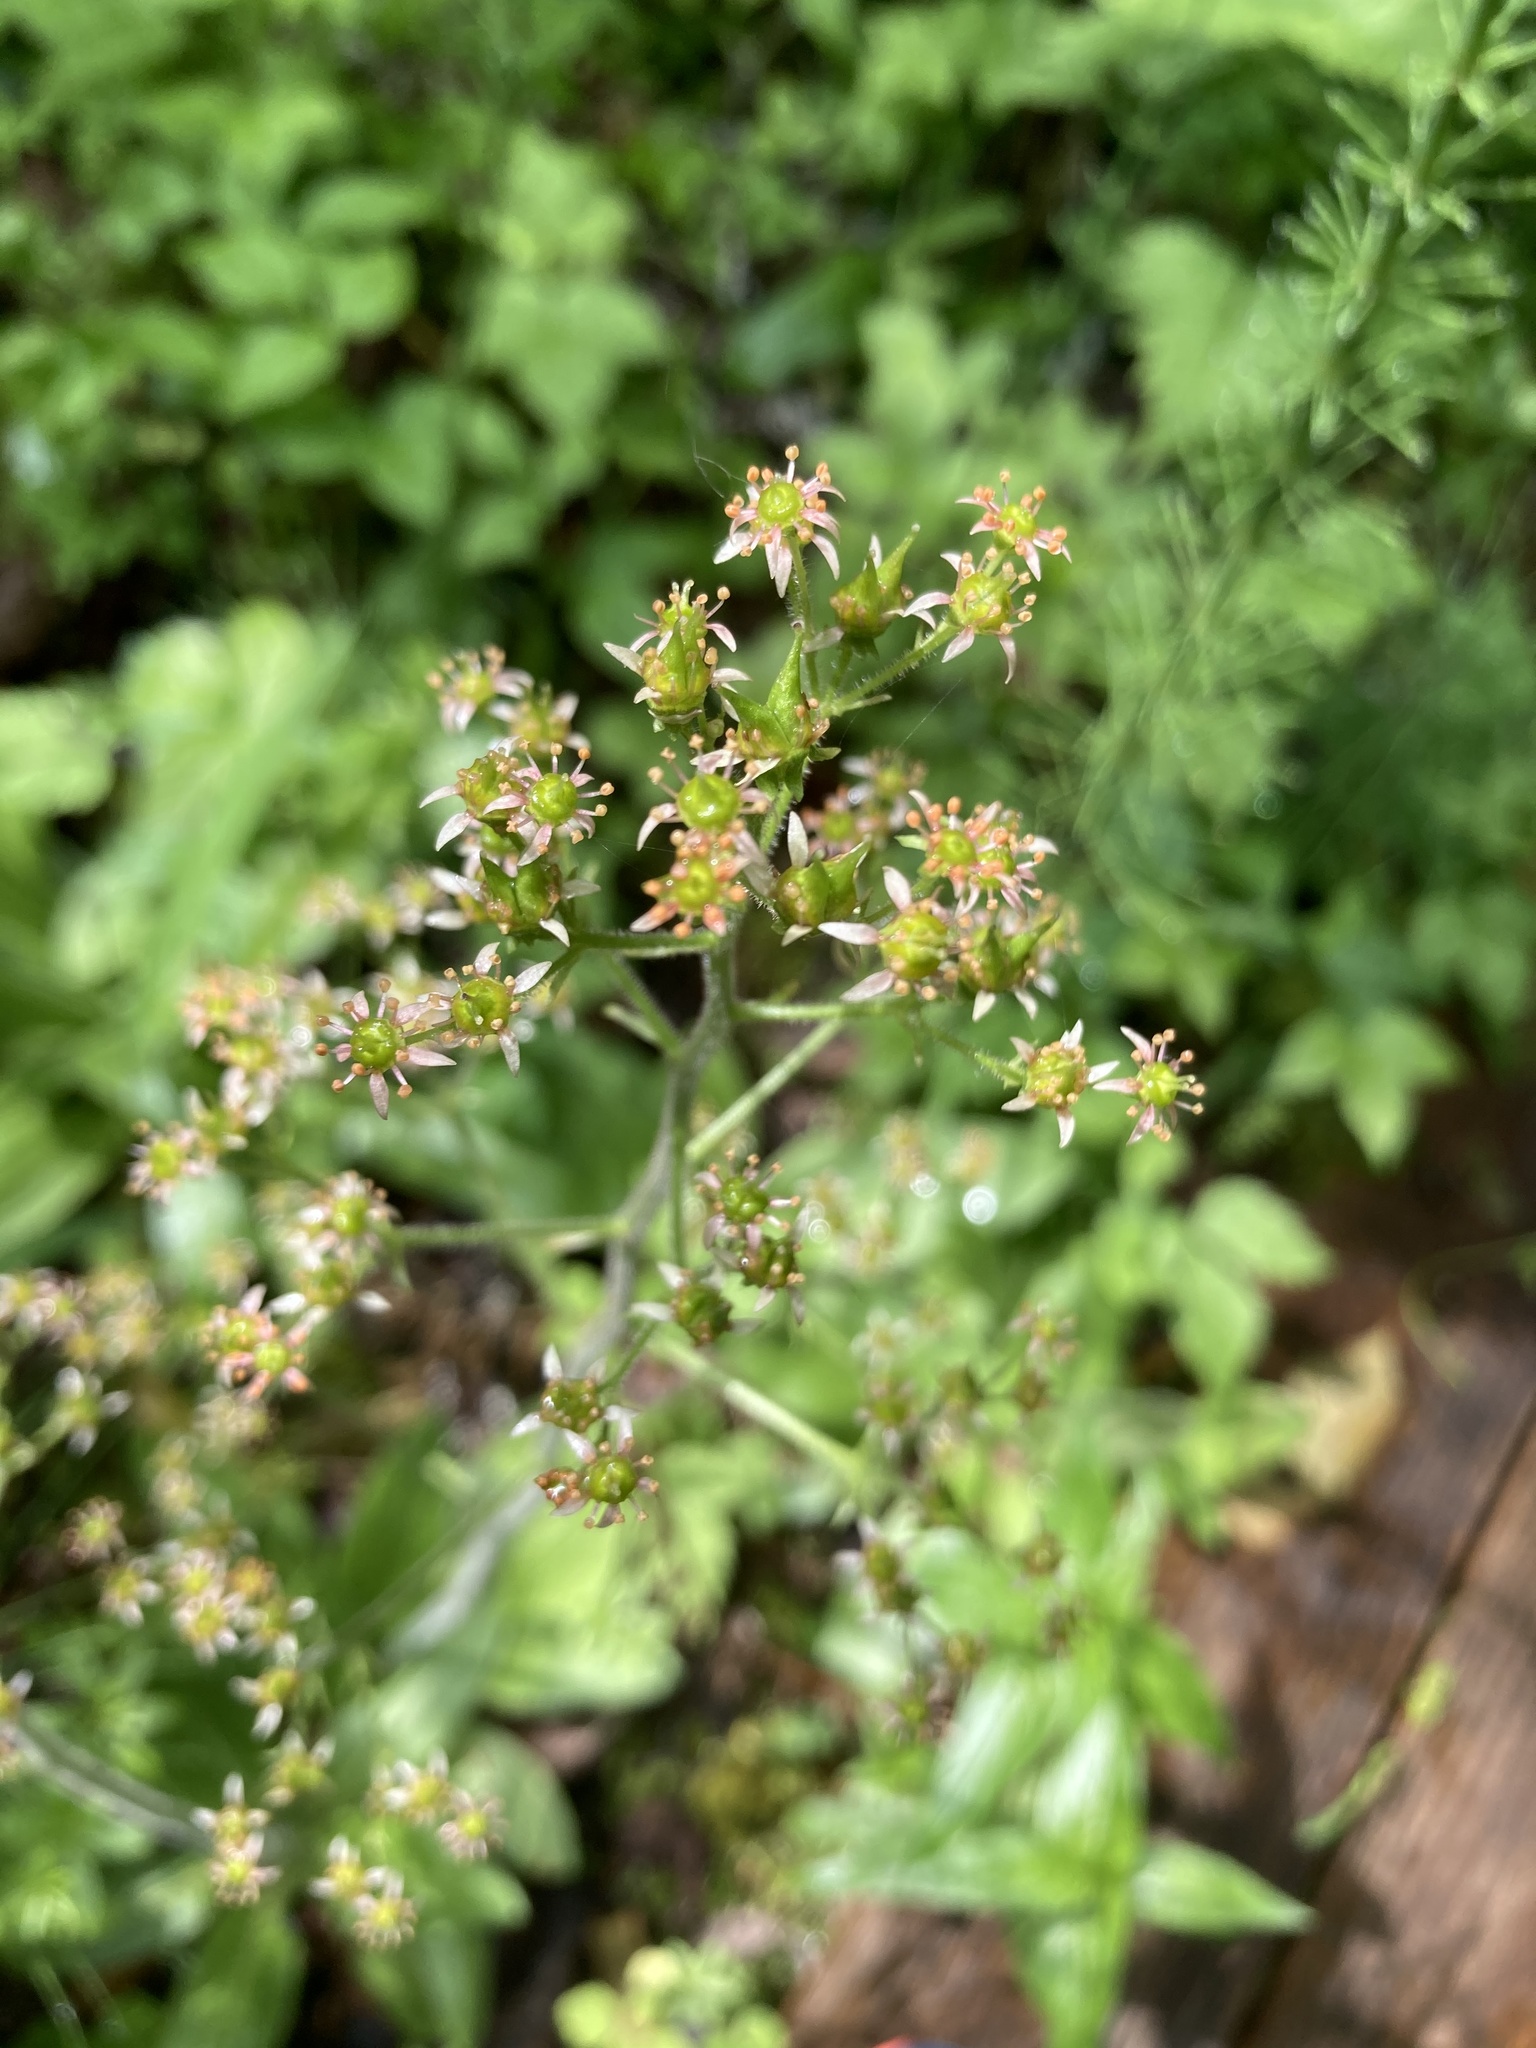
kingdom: Plantae
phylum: Tracheophyta
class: Magnoliopsida
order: Saxifragales
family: Saxifragaceae
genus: Micranthes
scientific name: Micranthes pensylvanica
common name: Marsh saxifrage
